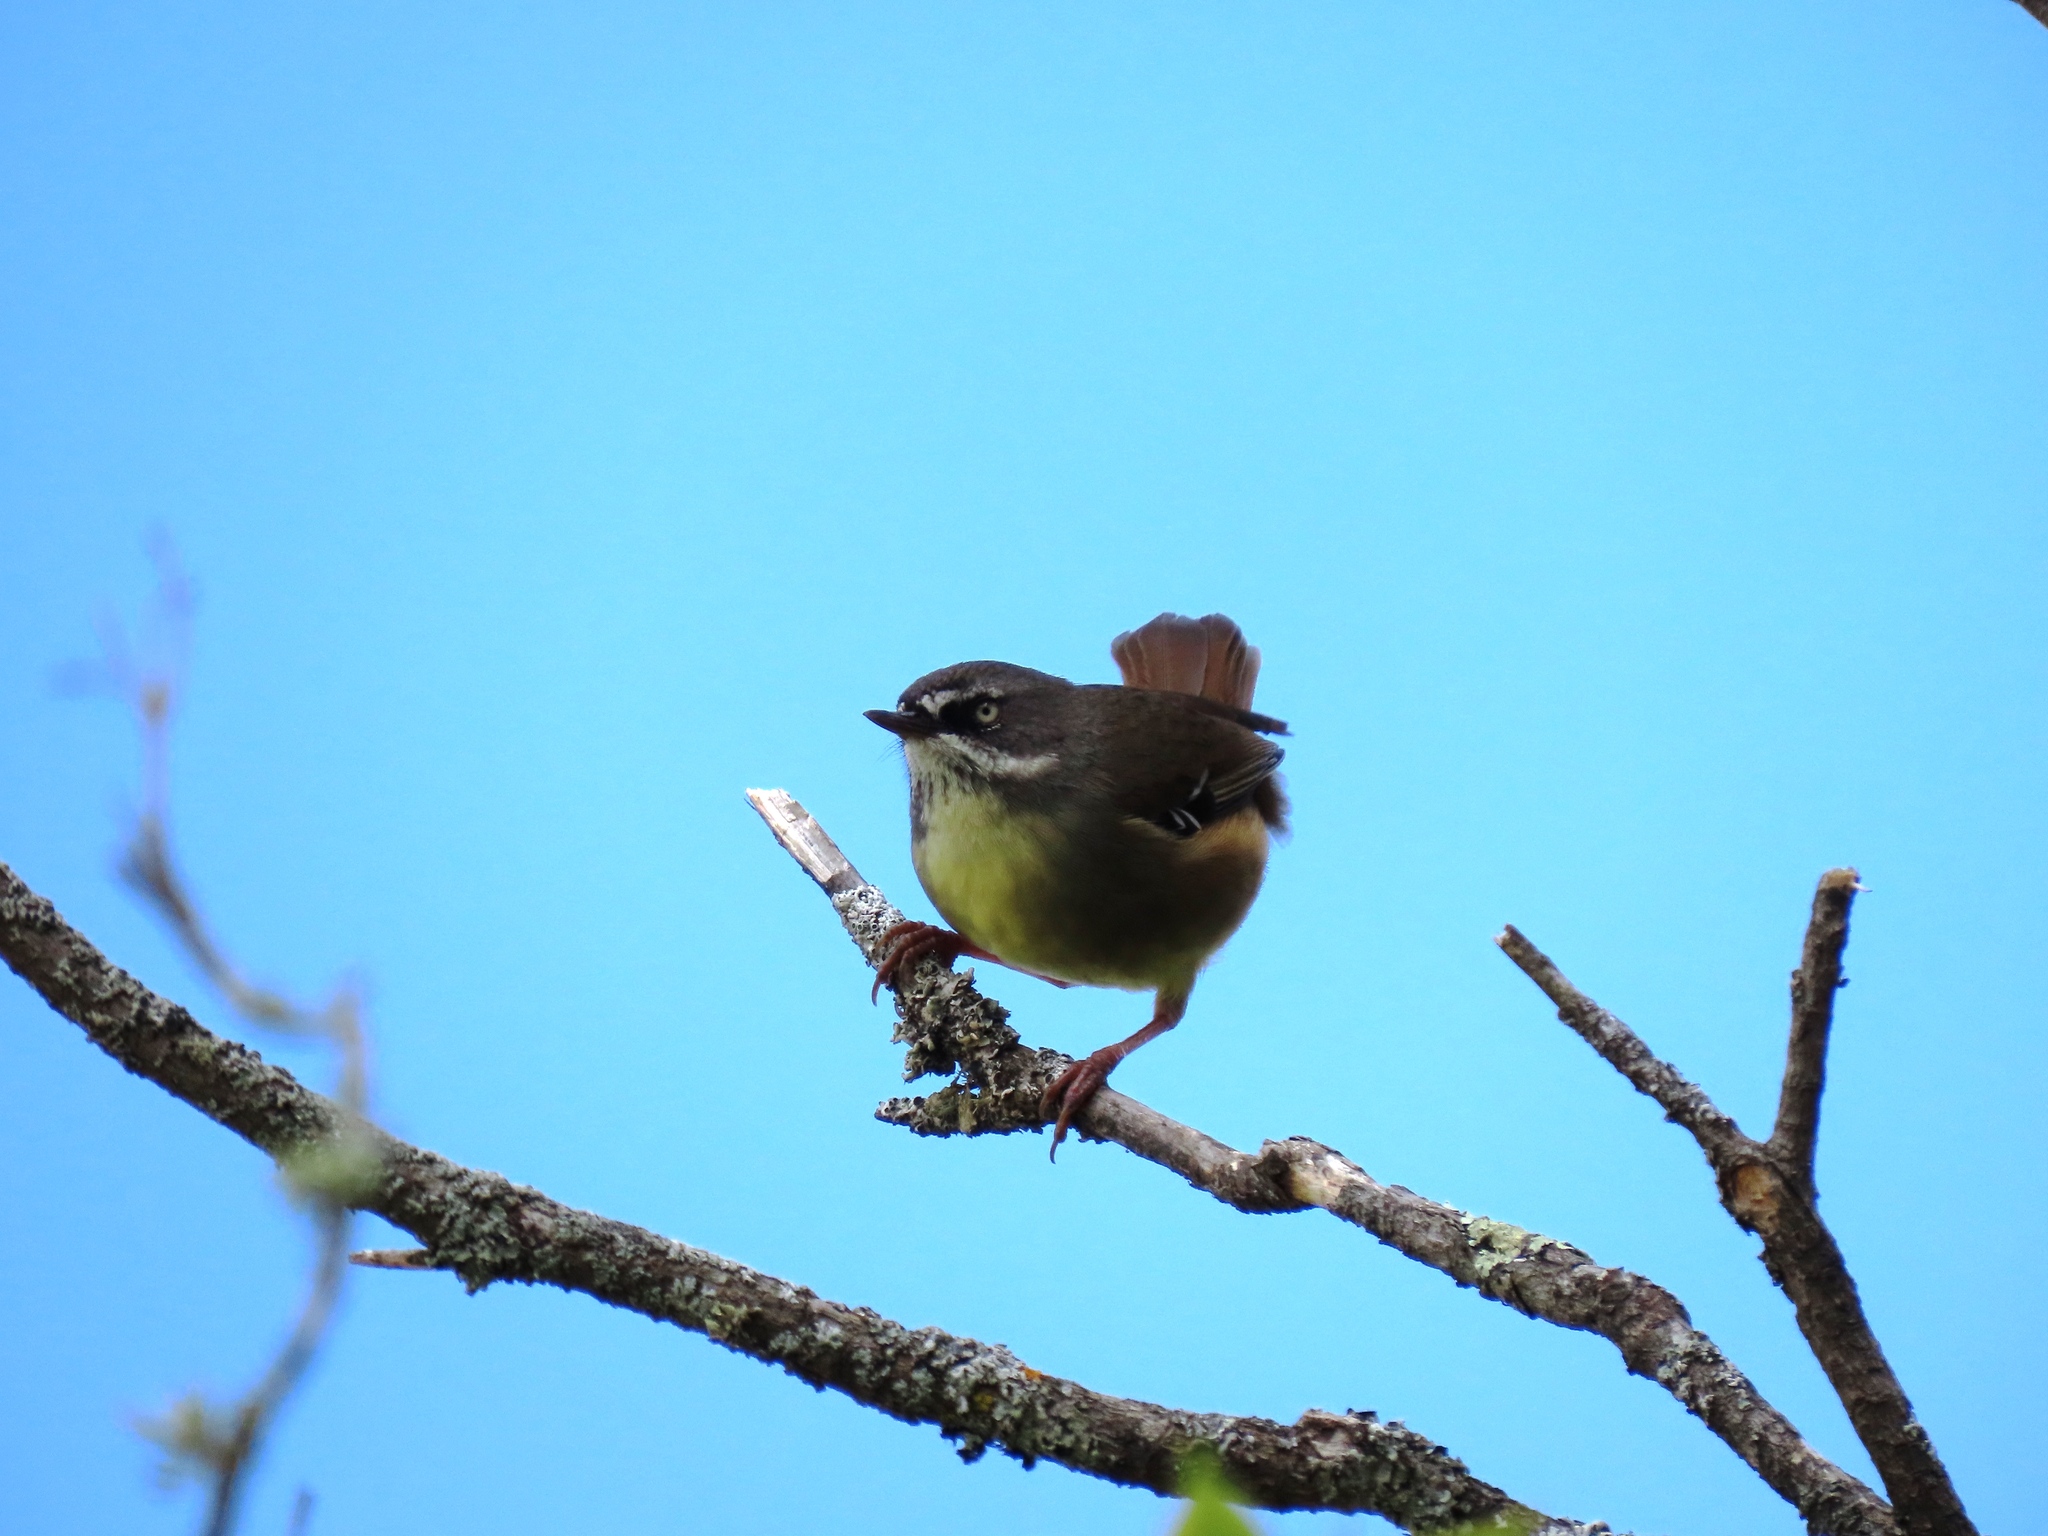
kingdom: Animalia
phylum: Chordata
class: Aves
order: Passeriformes
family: Acanthizidae
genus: Sericornis
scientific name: Sericornis frontalis
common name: White-browed scrubwren
